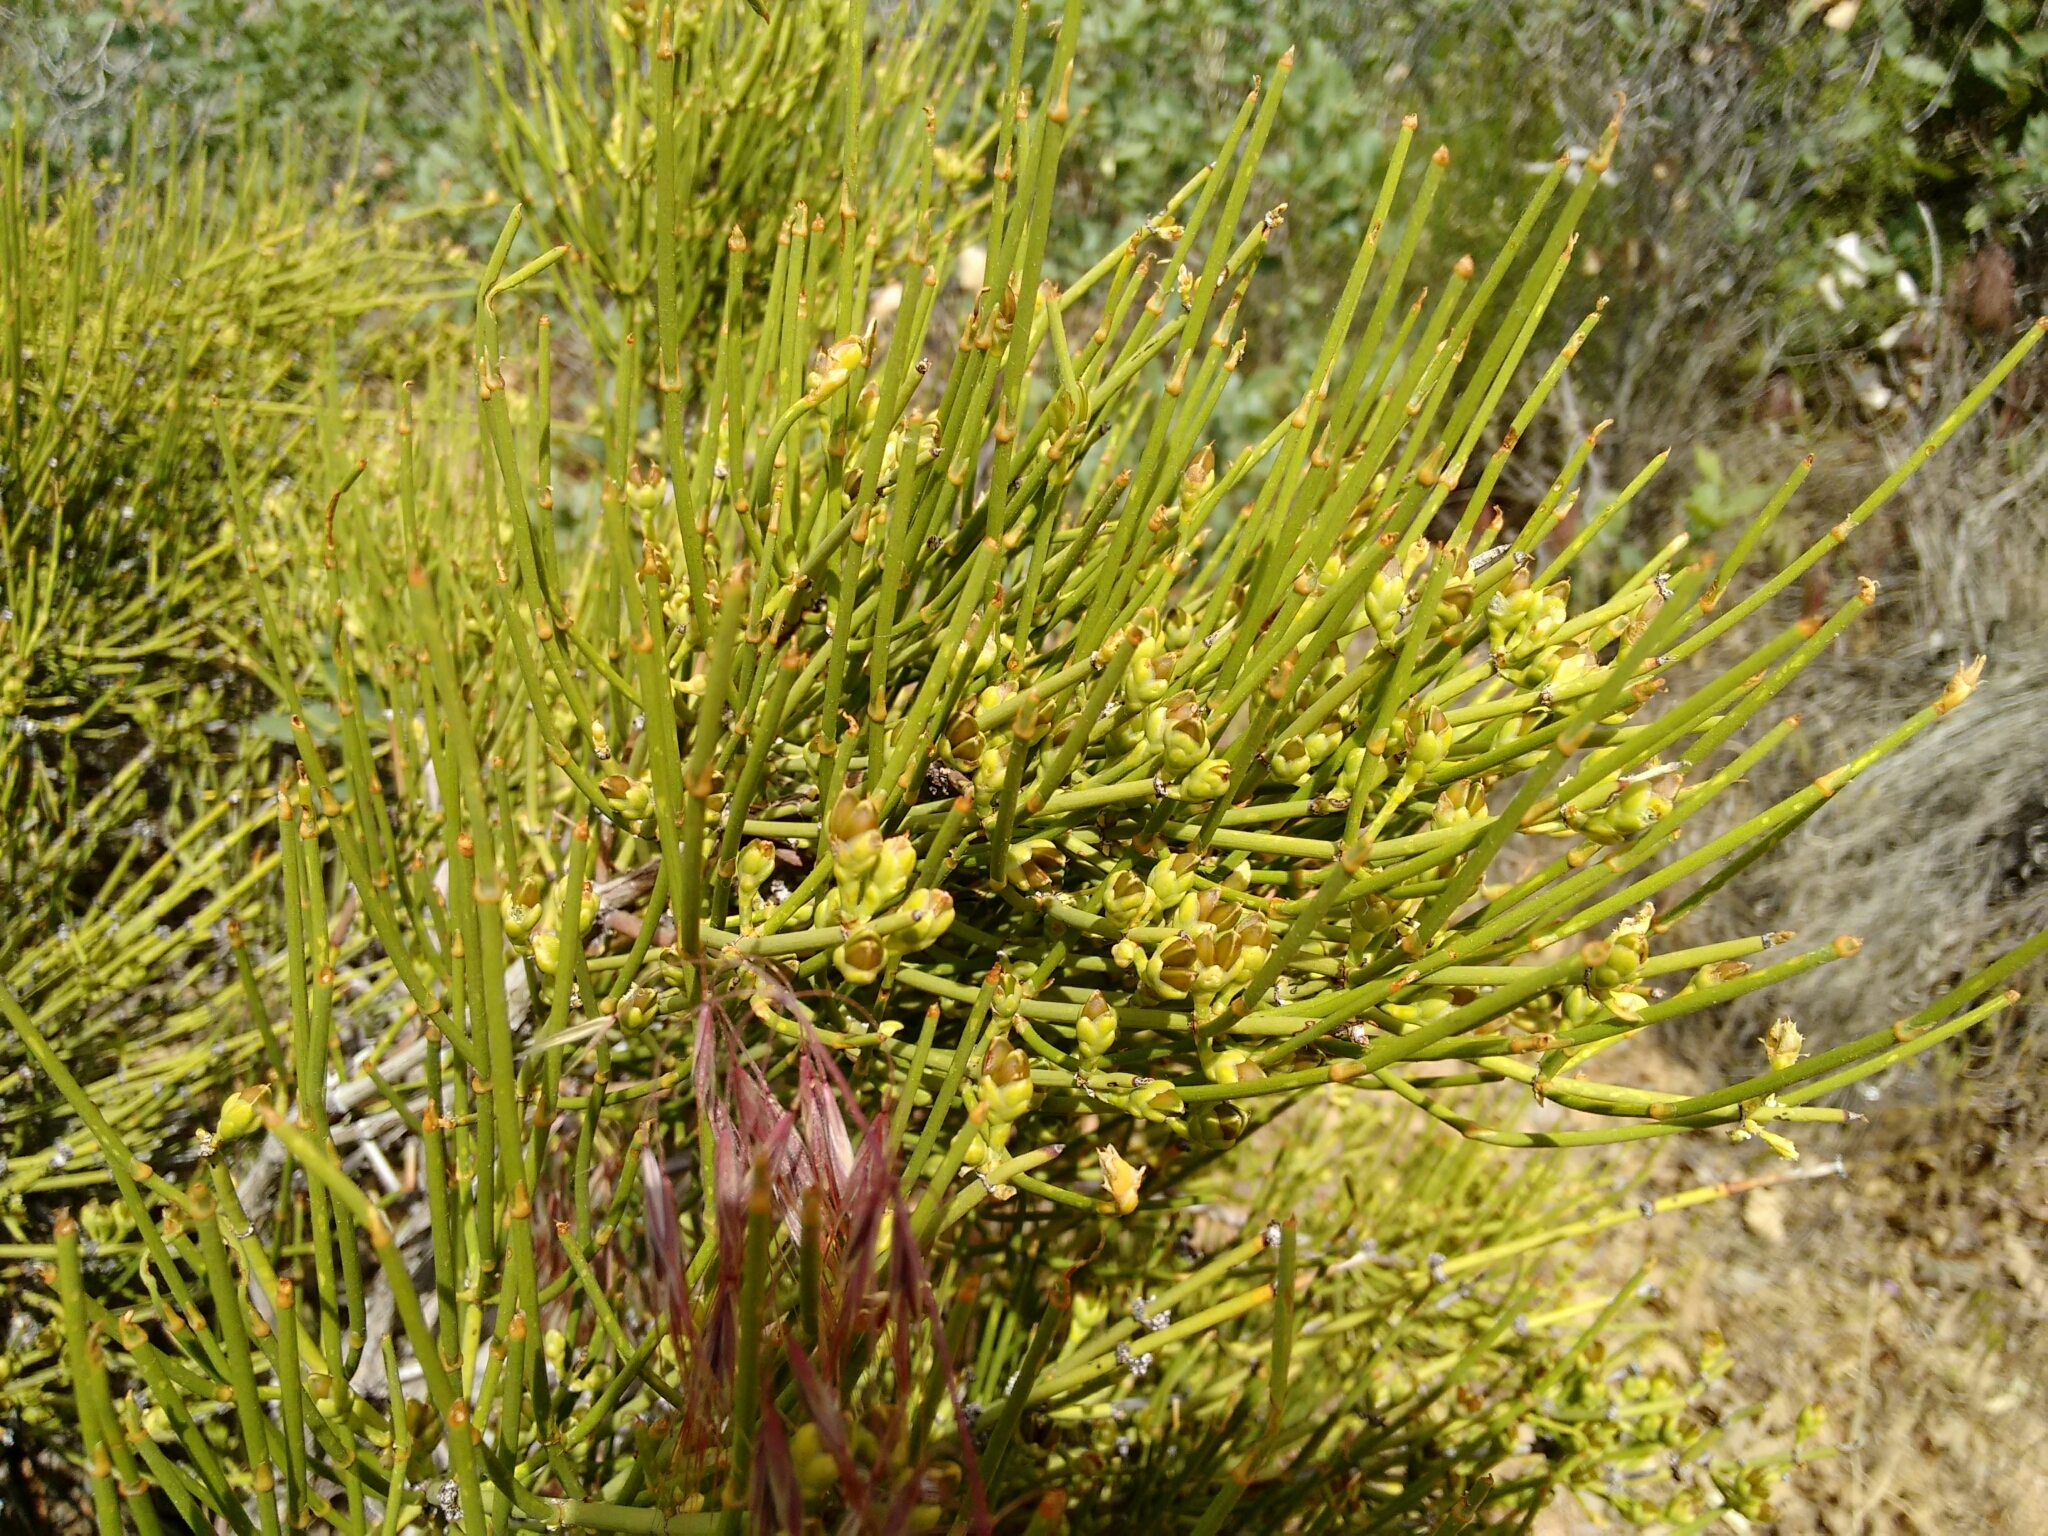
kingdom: Plantae
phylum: Tracheophyta
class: Gnetopsida
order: Ephedrales
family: Ephedraceae
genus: Ephedra
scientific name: Ephedra viridis
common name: Green ephedra
